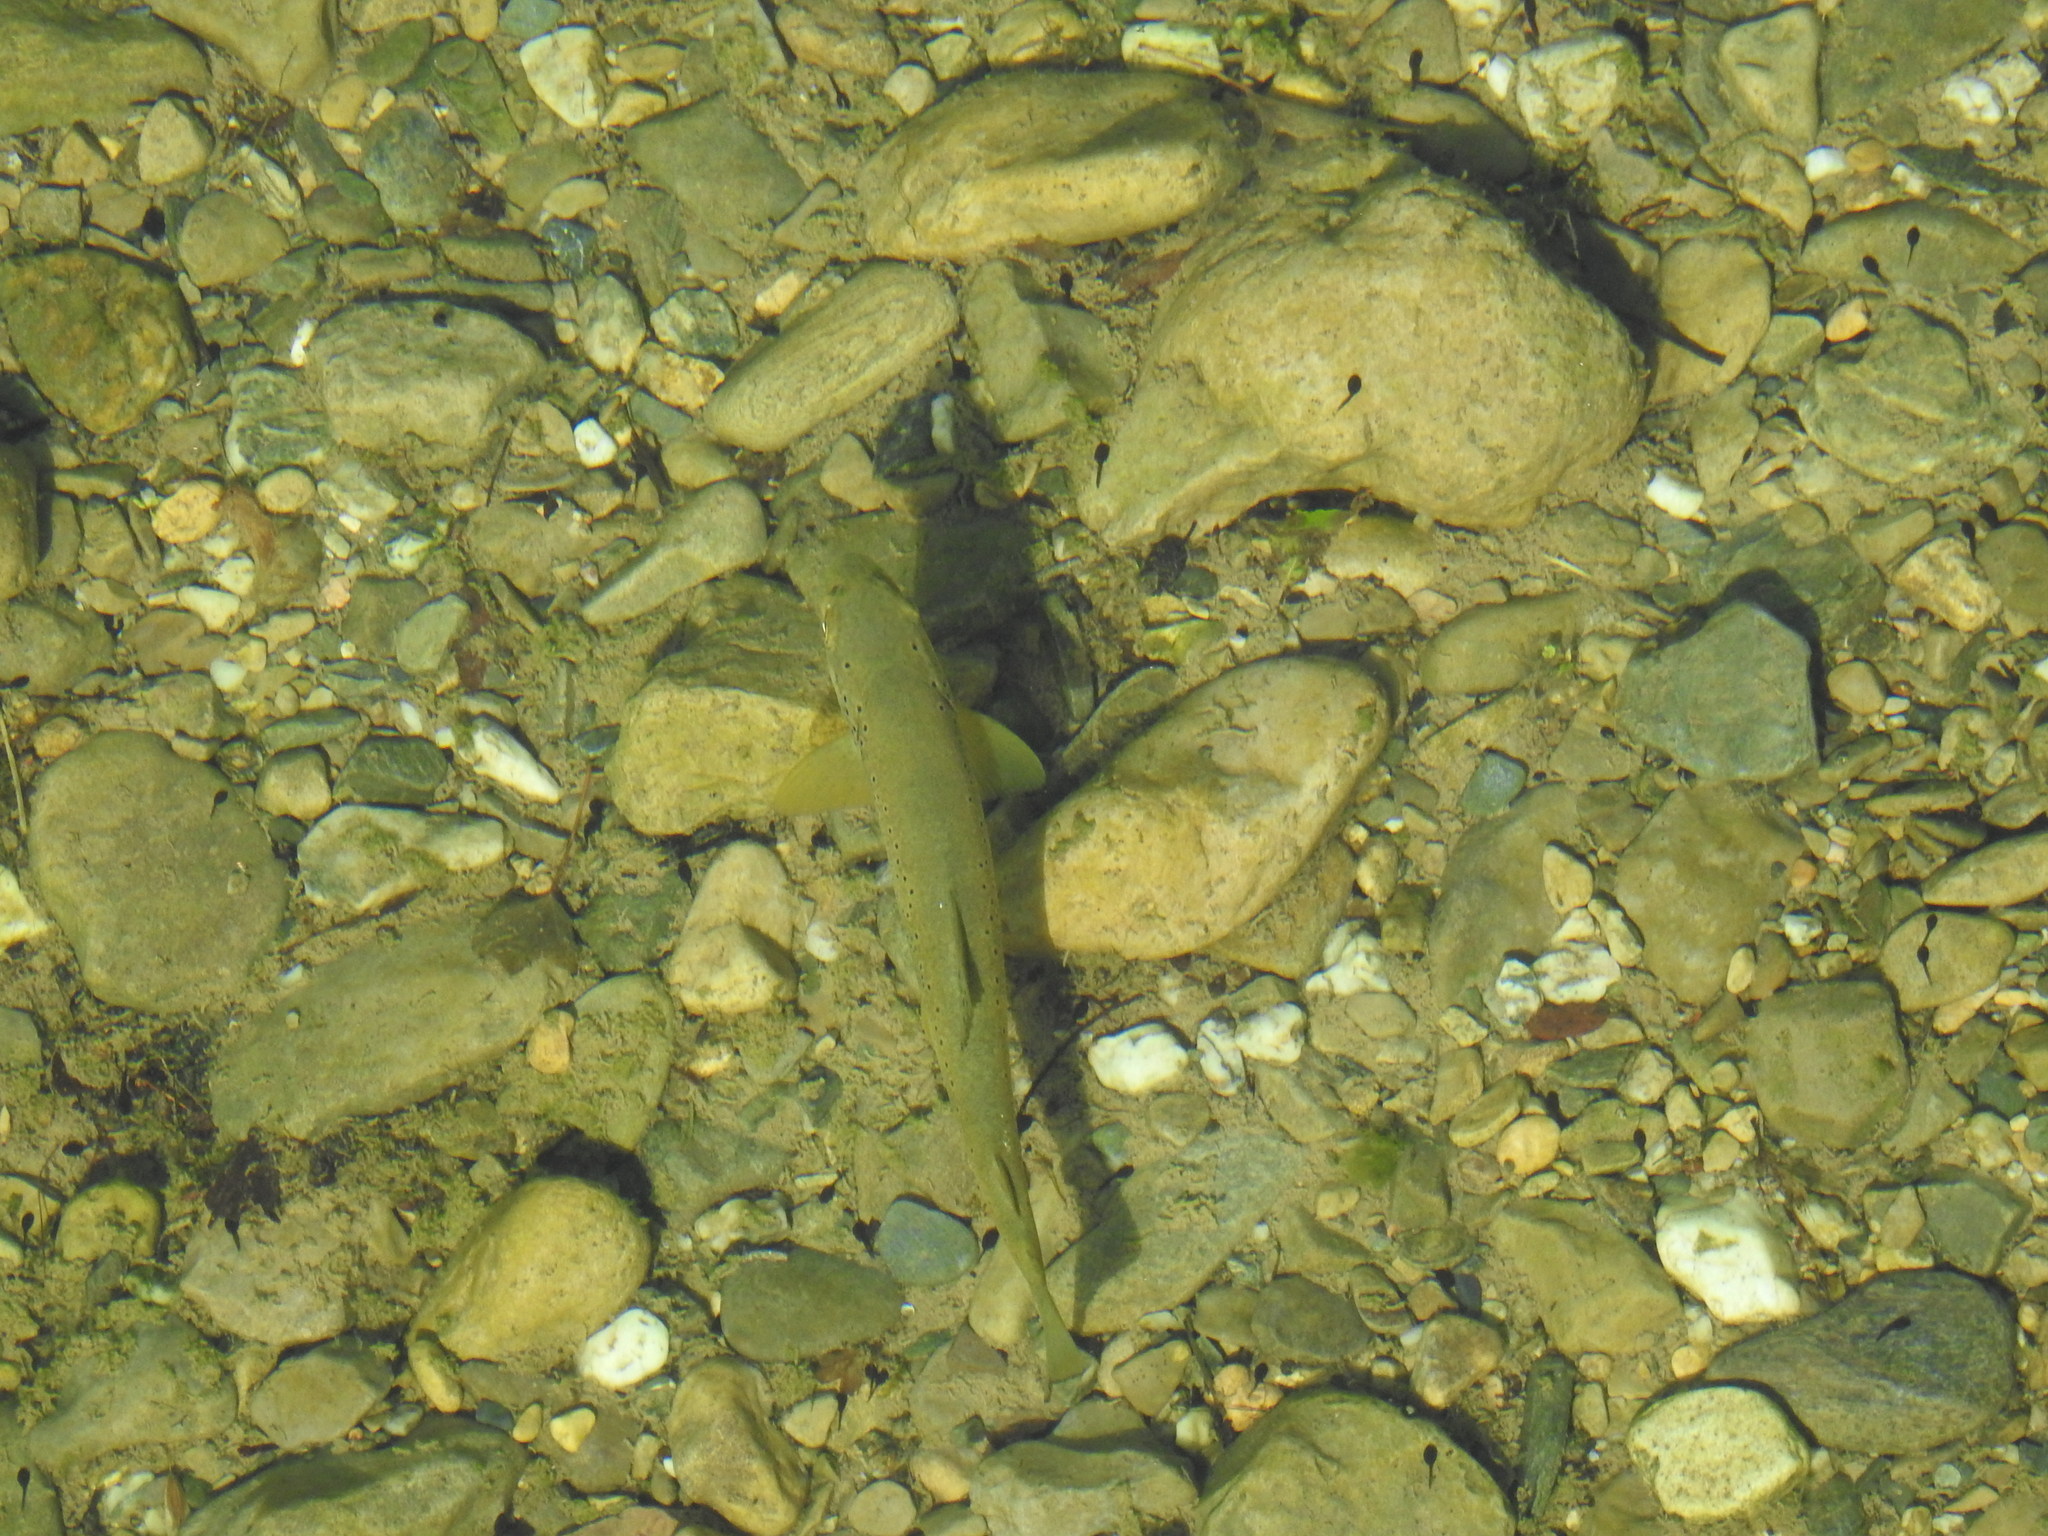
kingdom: Animalia
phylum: Chordata
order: Salmoniformes
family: Salmonidae
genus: Salmo
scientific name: Salmo trutta
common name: Brown trout
